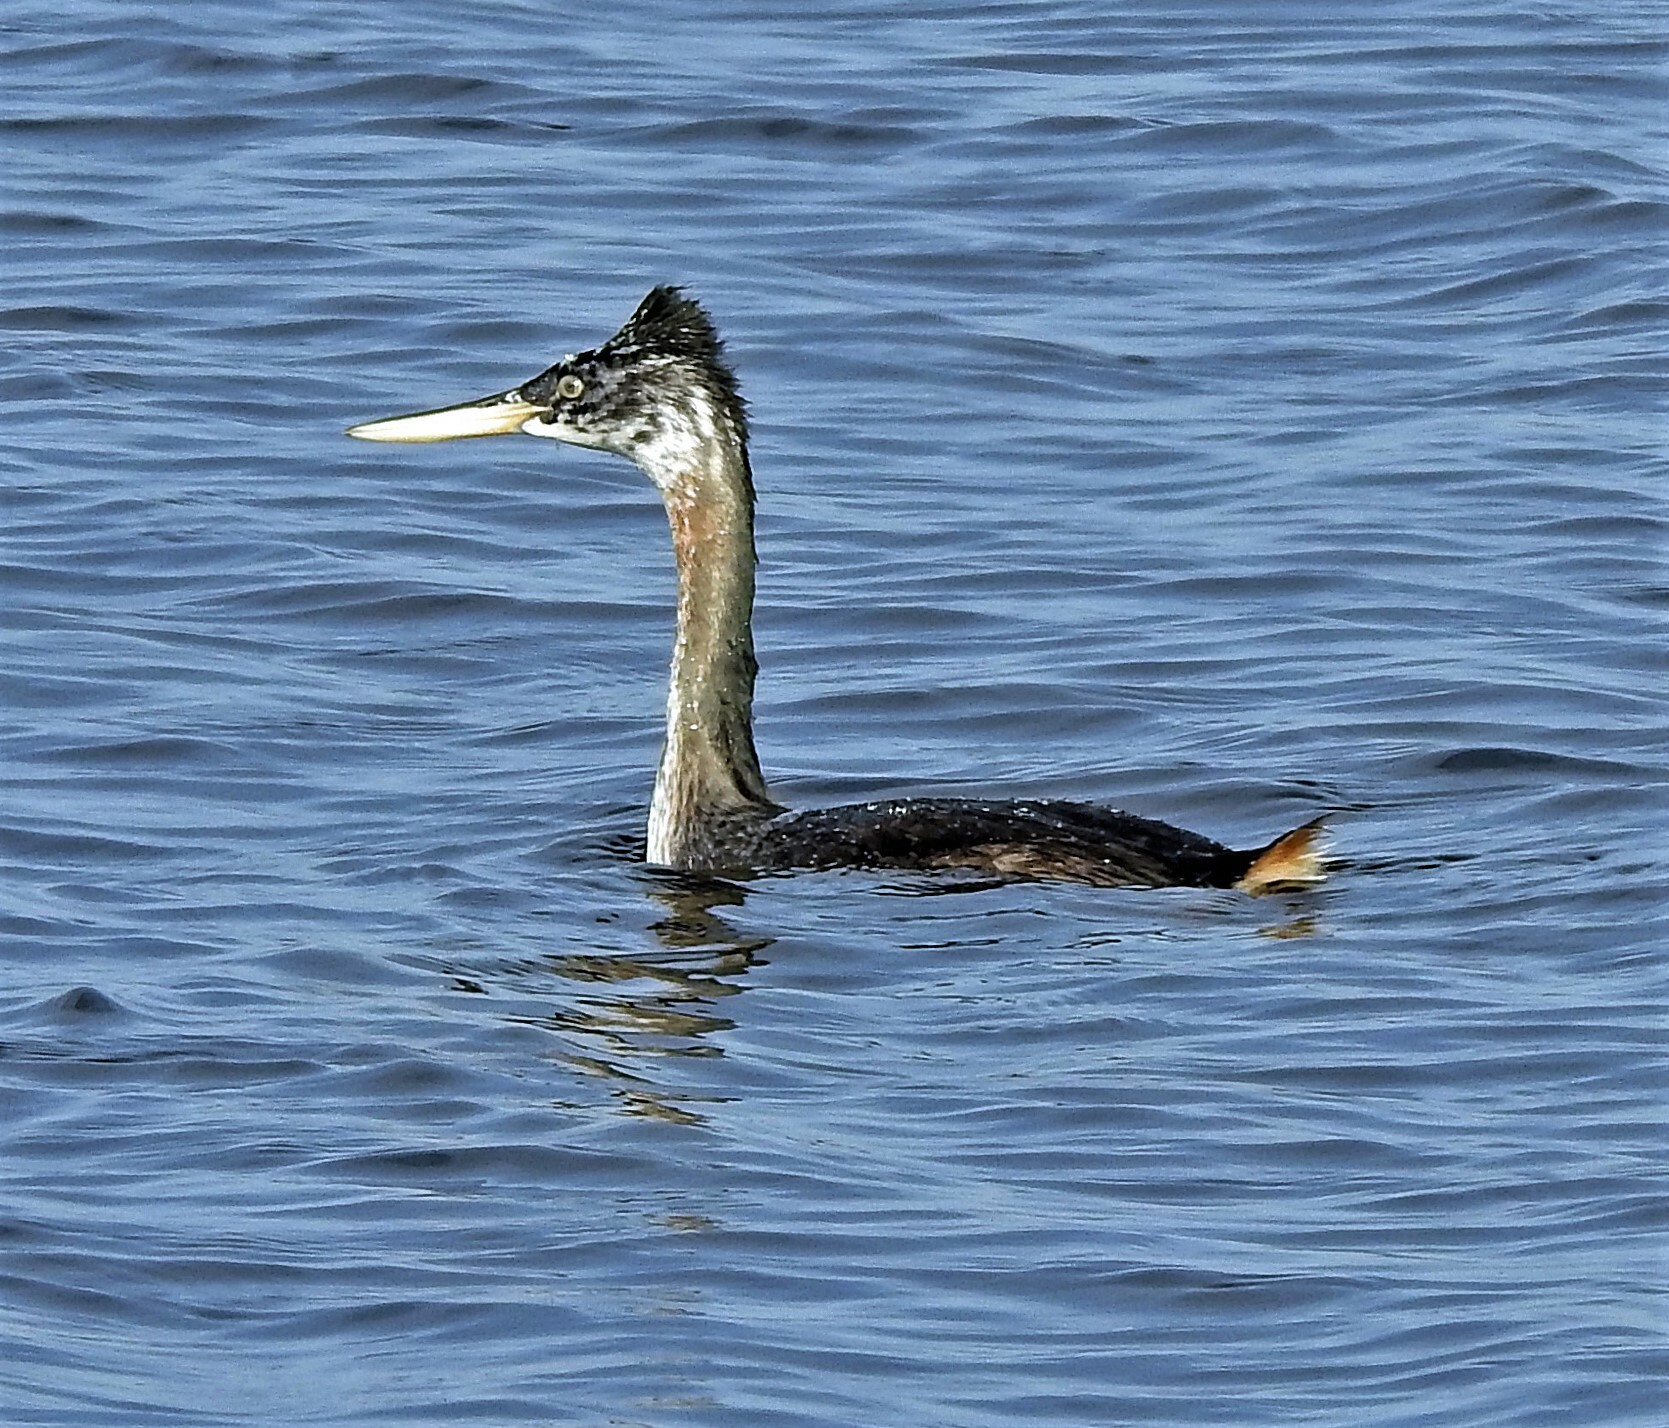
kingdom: Animalia
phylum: Chordata
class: Aves
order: Podicipediformes
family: Podicipedidae
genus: Podiceps
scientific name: Podiceps major
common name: Great grebe
